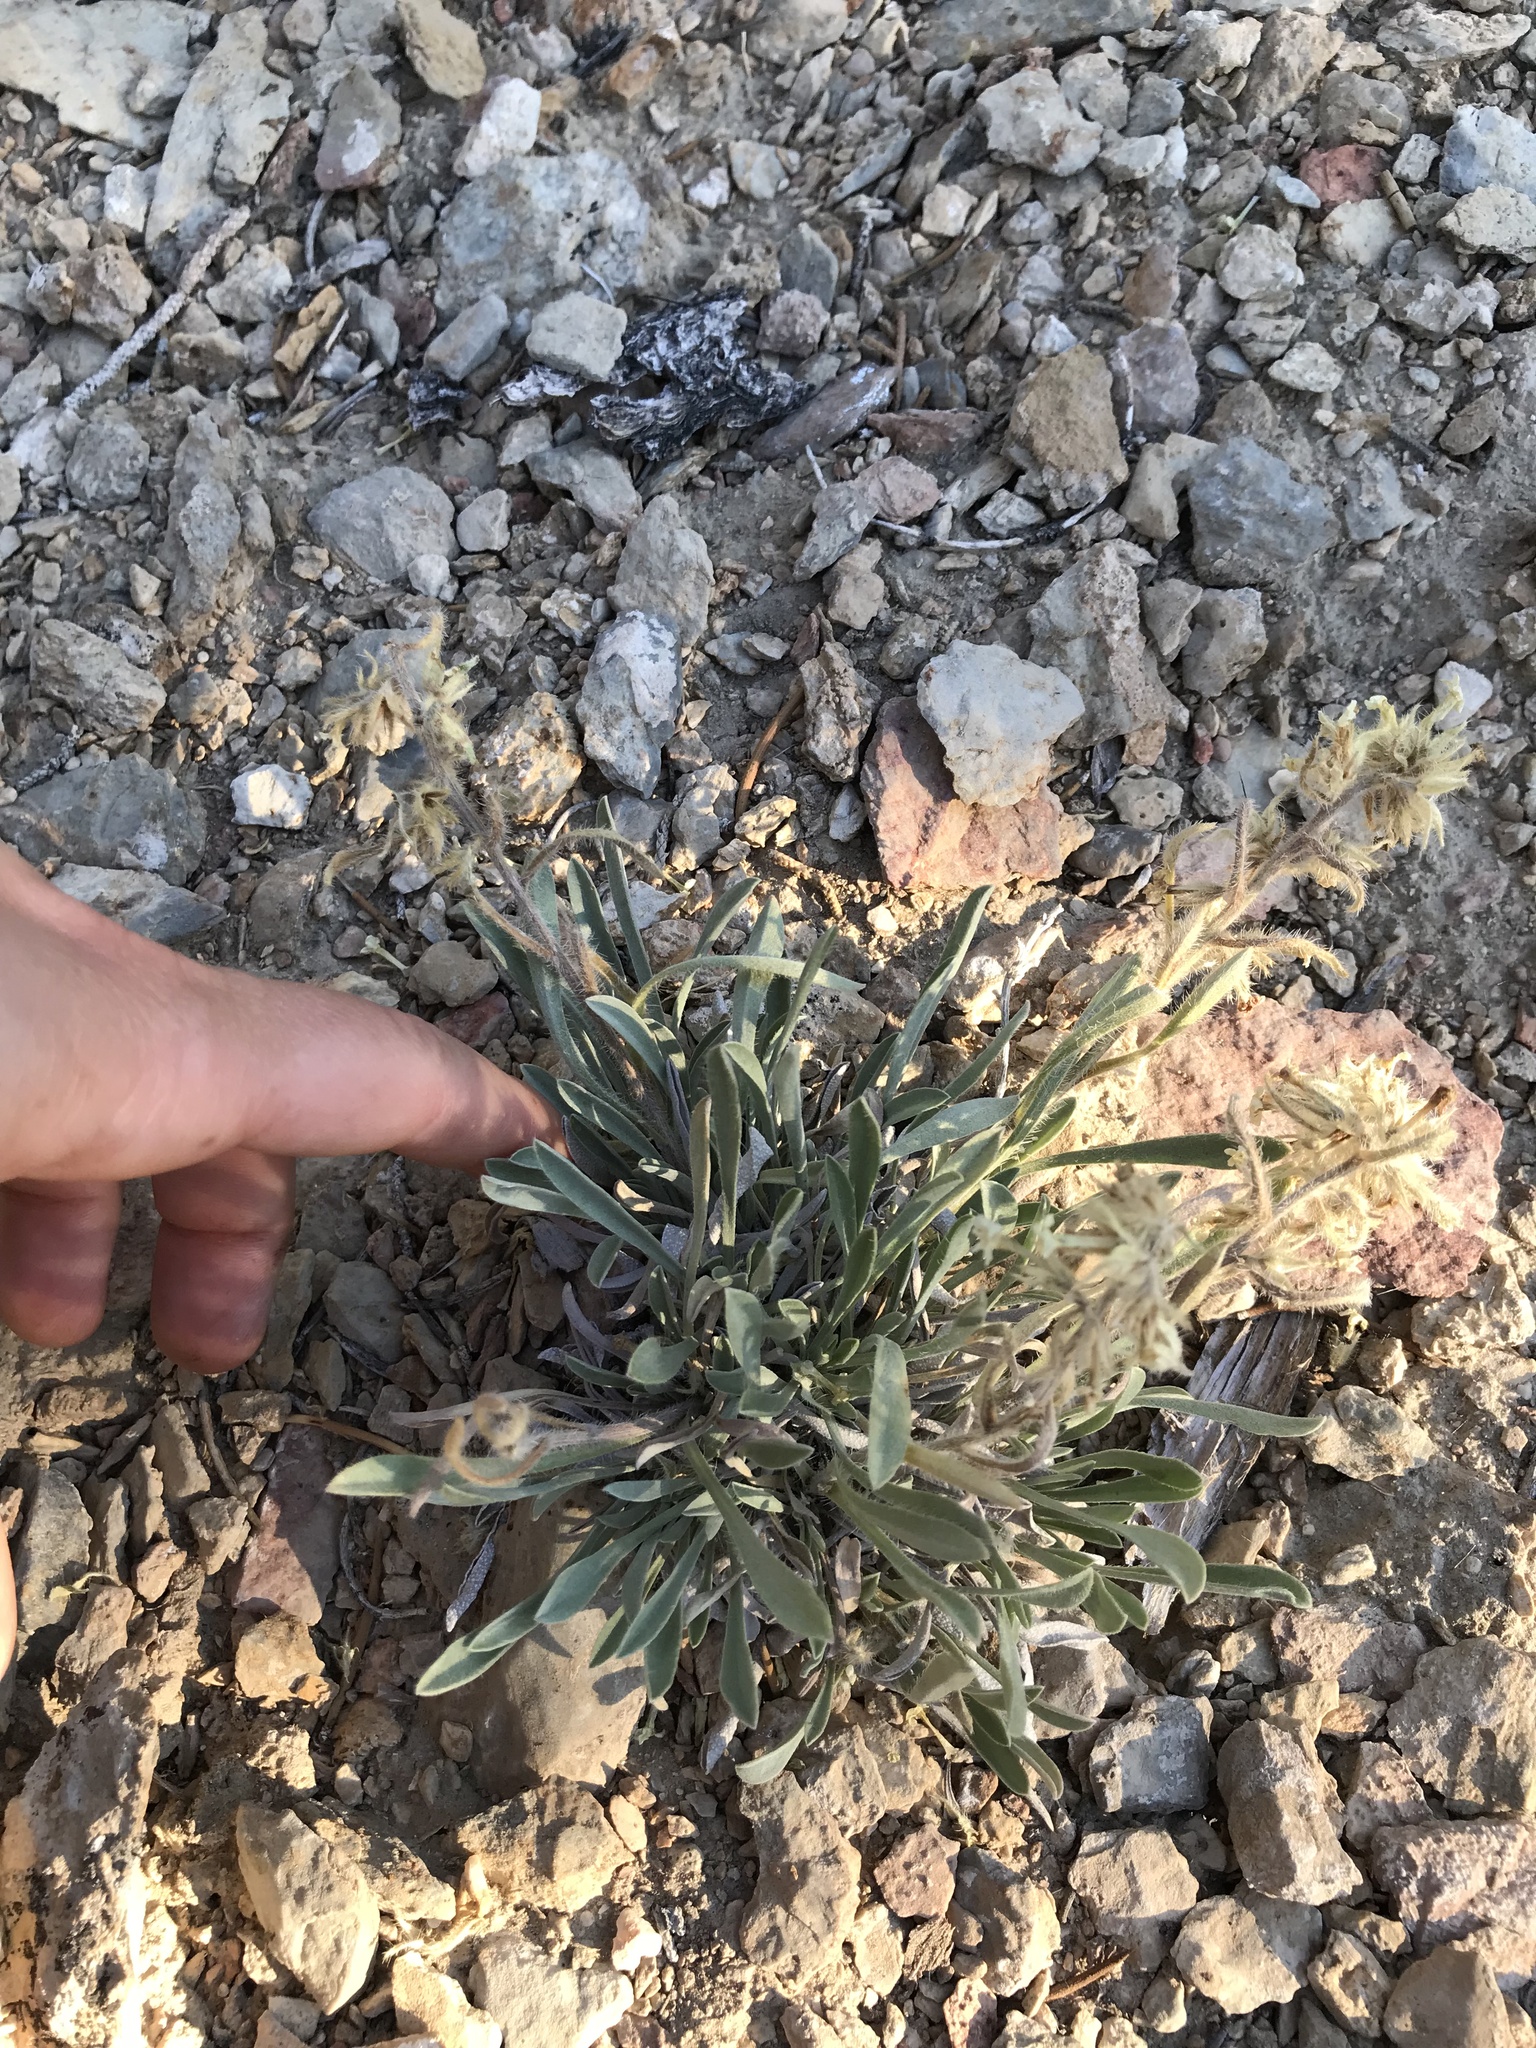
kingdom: Plantae
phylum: Tracheophyta
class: Magnoliopsida
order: Boraginales
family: Boraginaceae
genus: Oreocarya
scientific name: Oreocarya flavoculata
